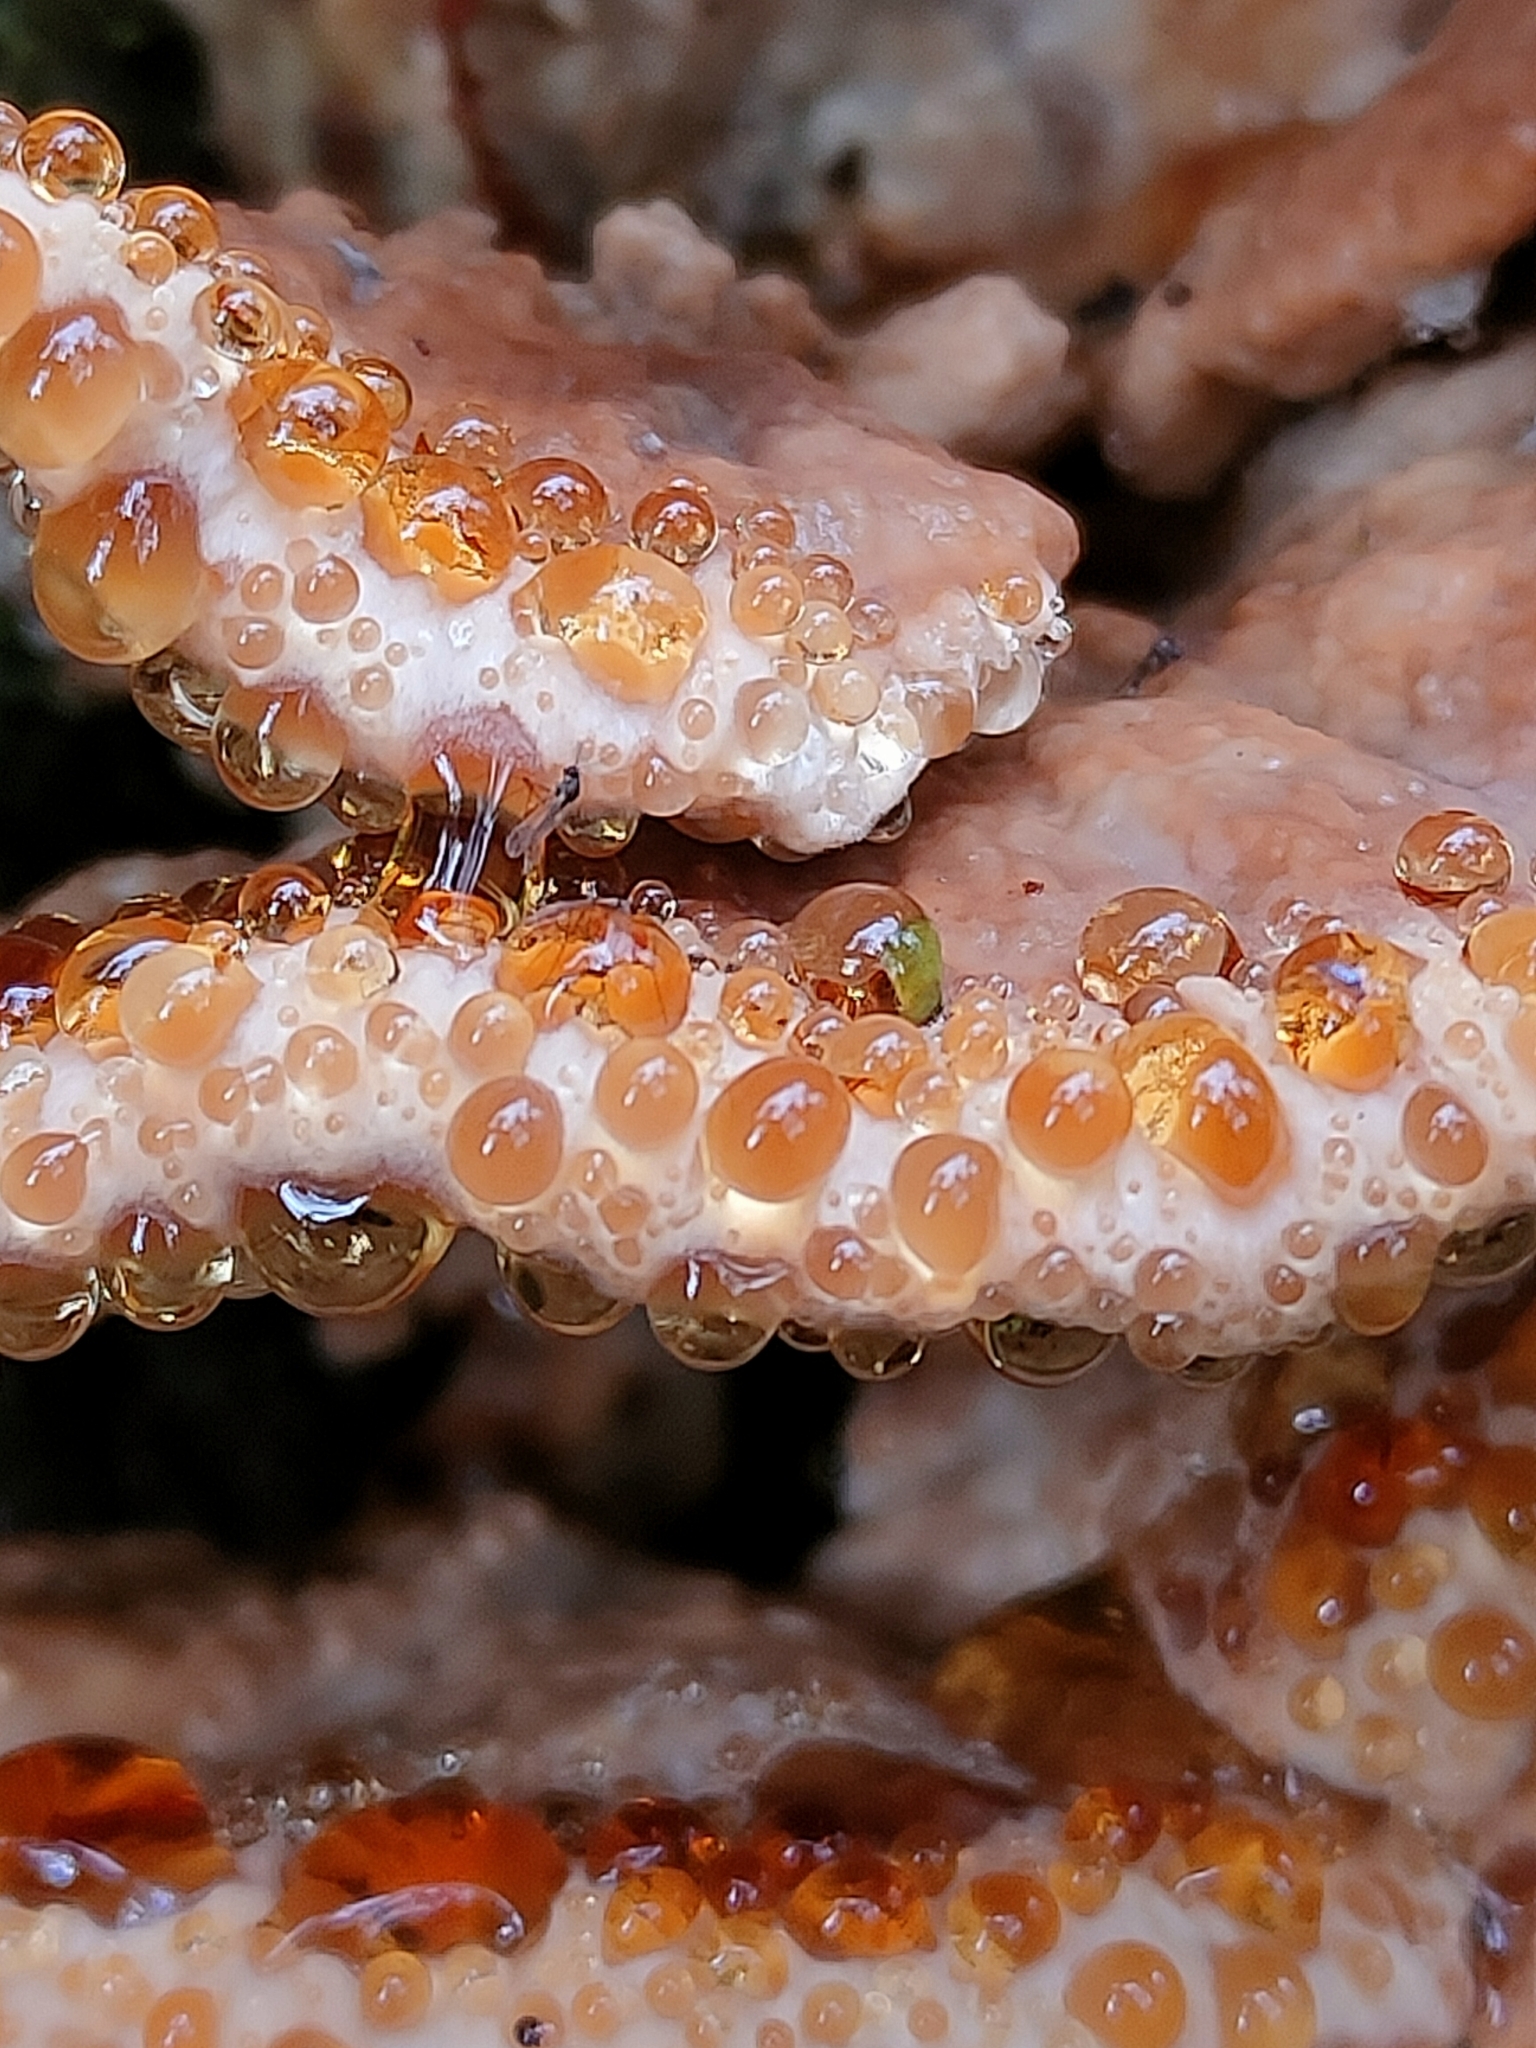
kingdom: Fungi
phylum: Basidiomycota
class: Agaricomycetes
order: Polyporales
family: Dacryobolaceae
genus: Postia
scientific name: Postia punctata
